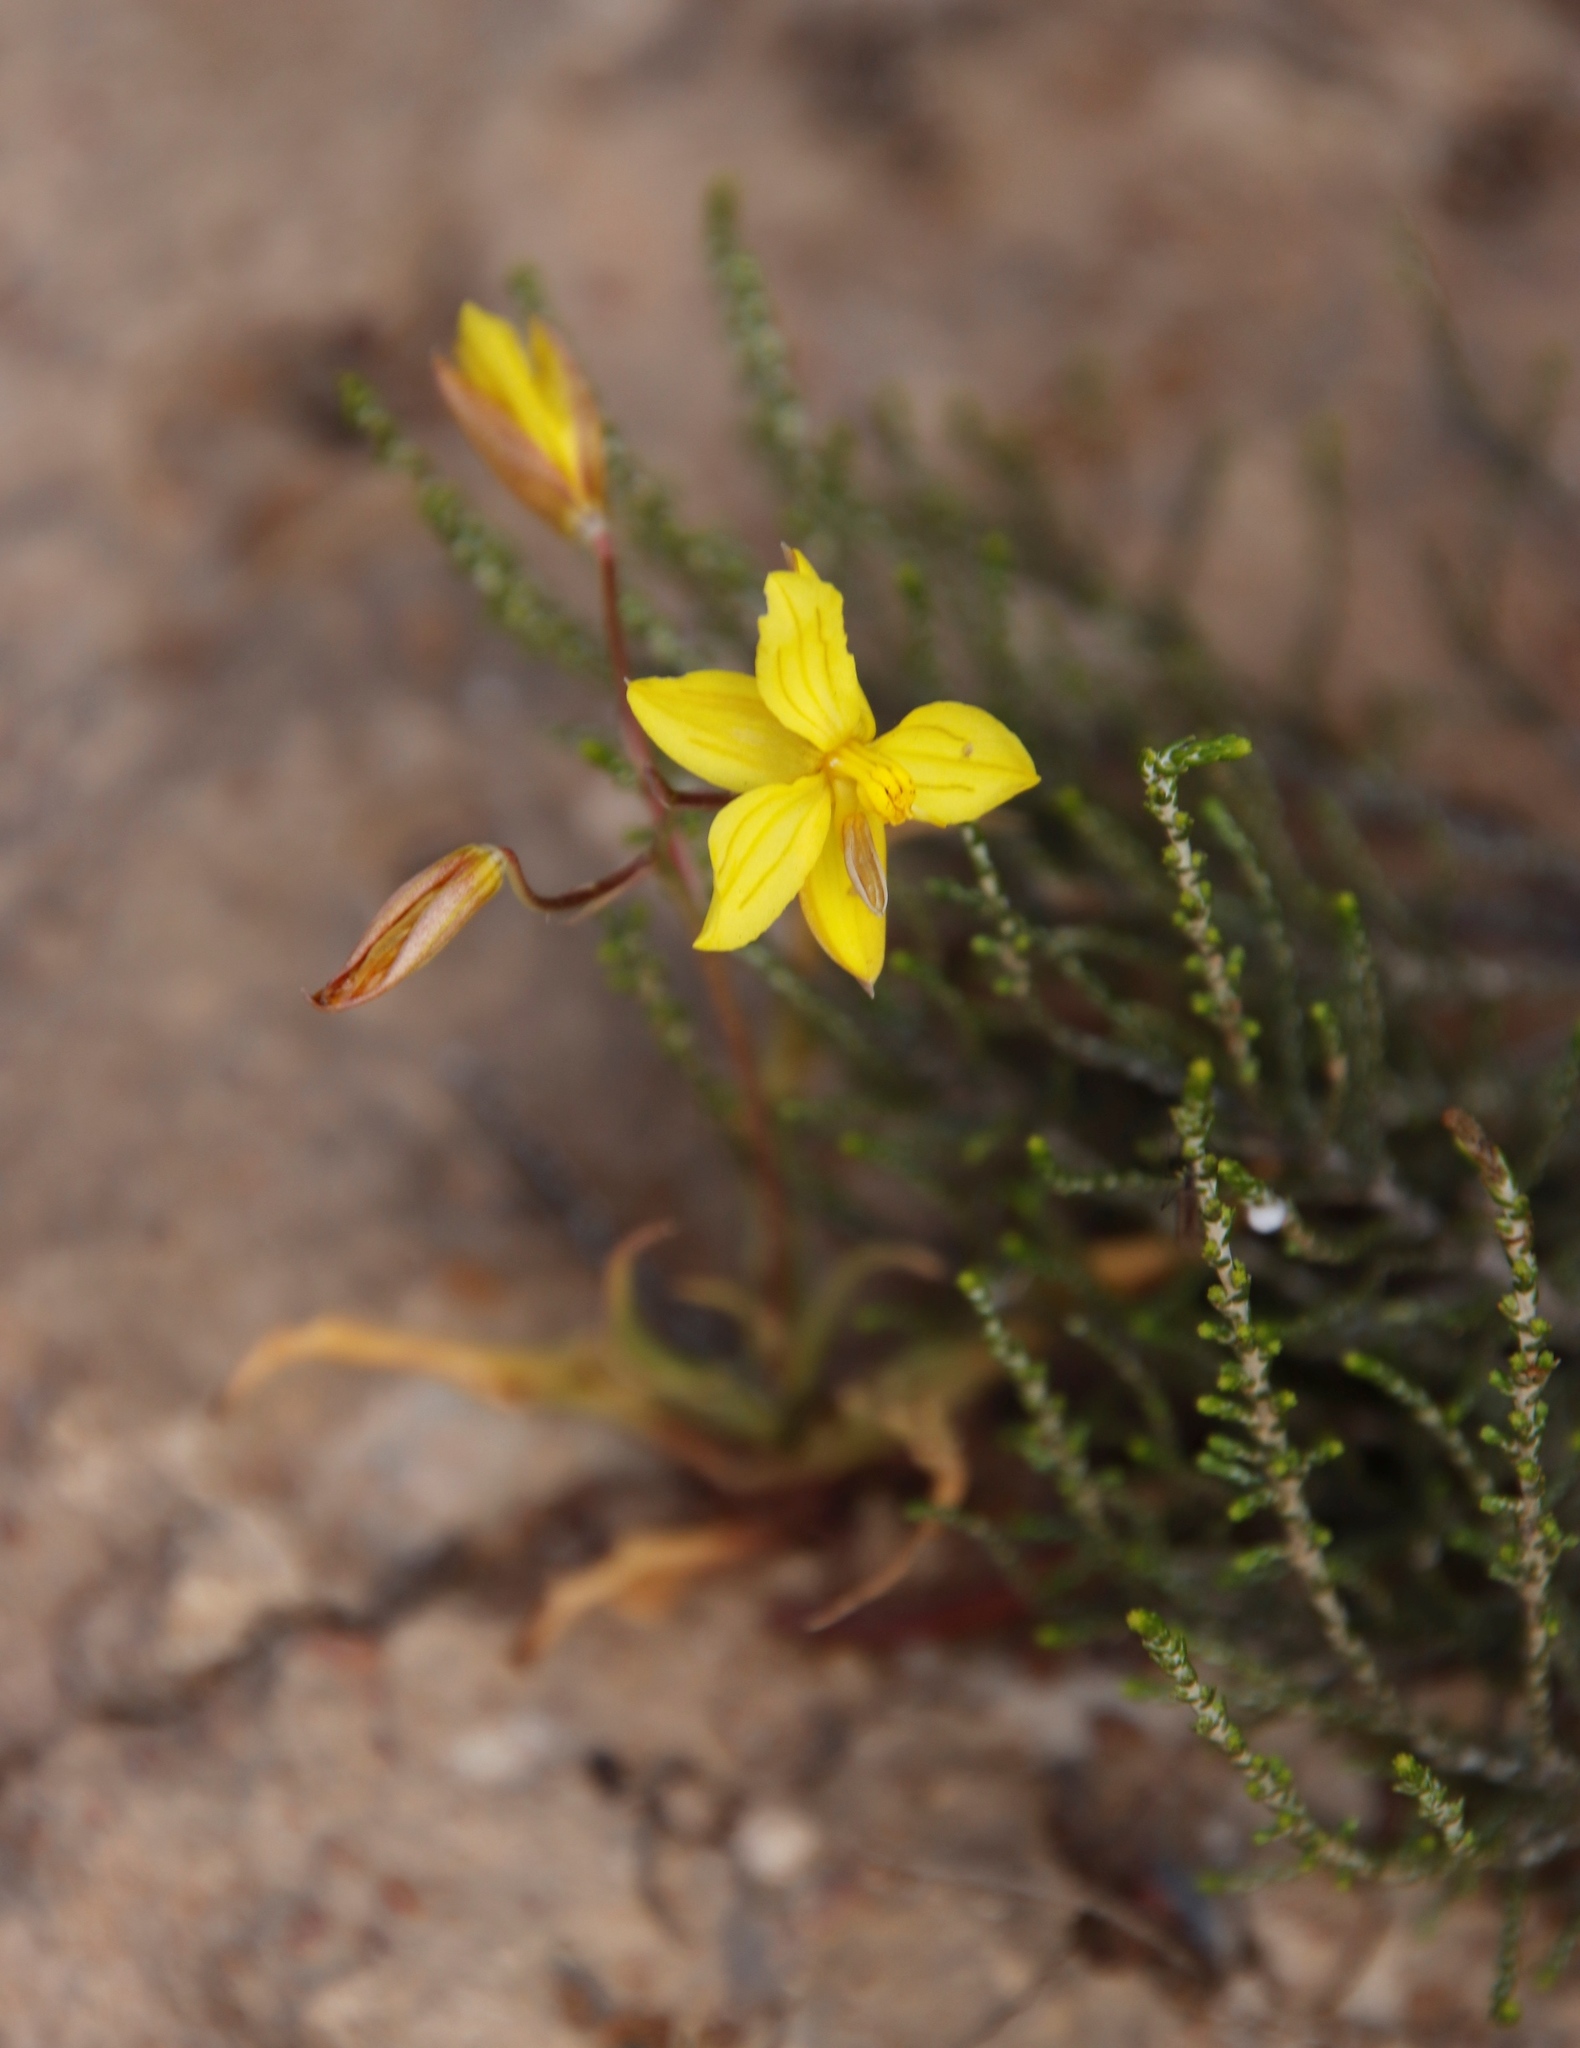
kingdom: Plantae
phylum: Tracheophyta
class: Liliopsida
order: Asparagales
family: Tecophilaeaceae
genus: Cyanella
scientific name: Cyanella lutea
